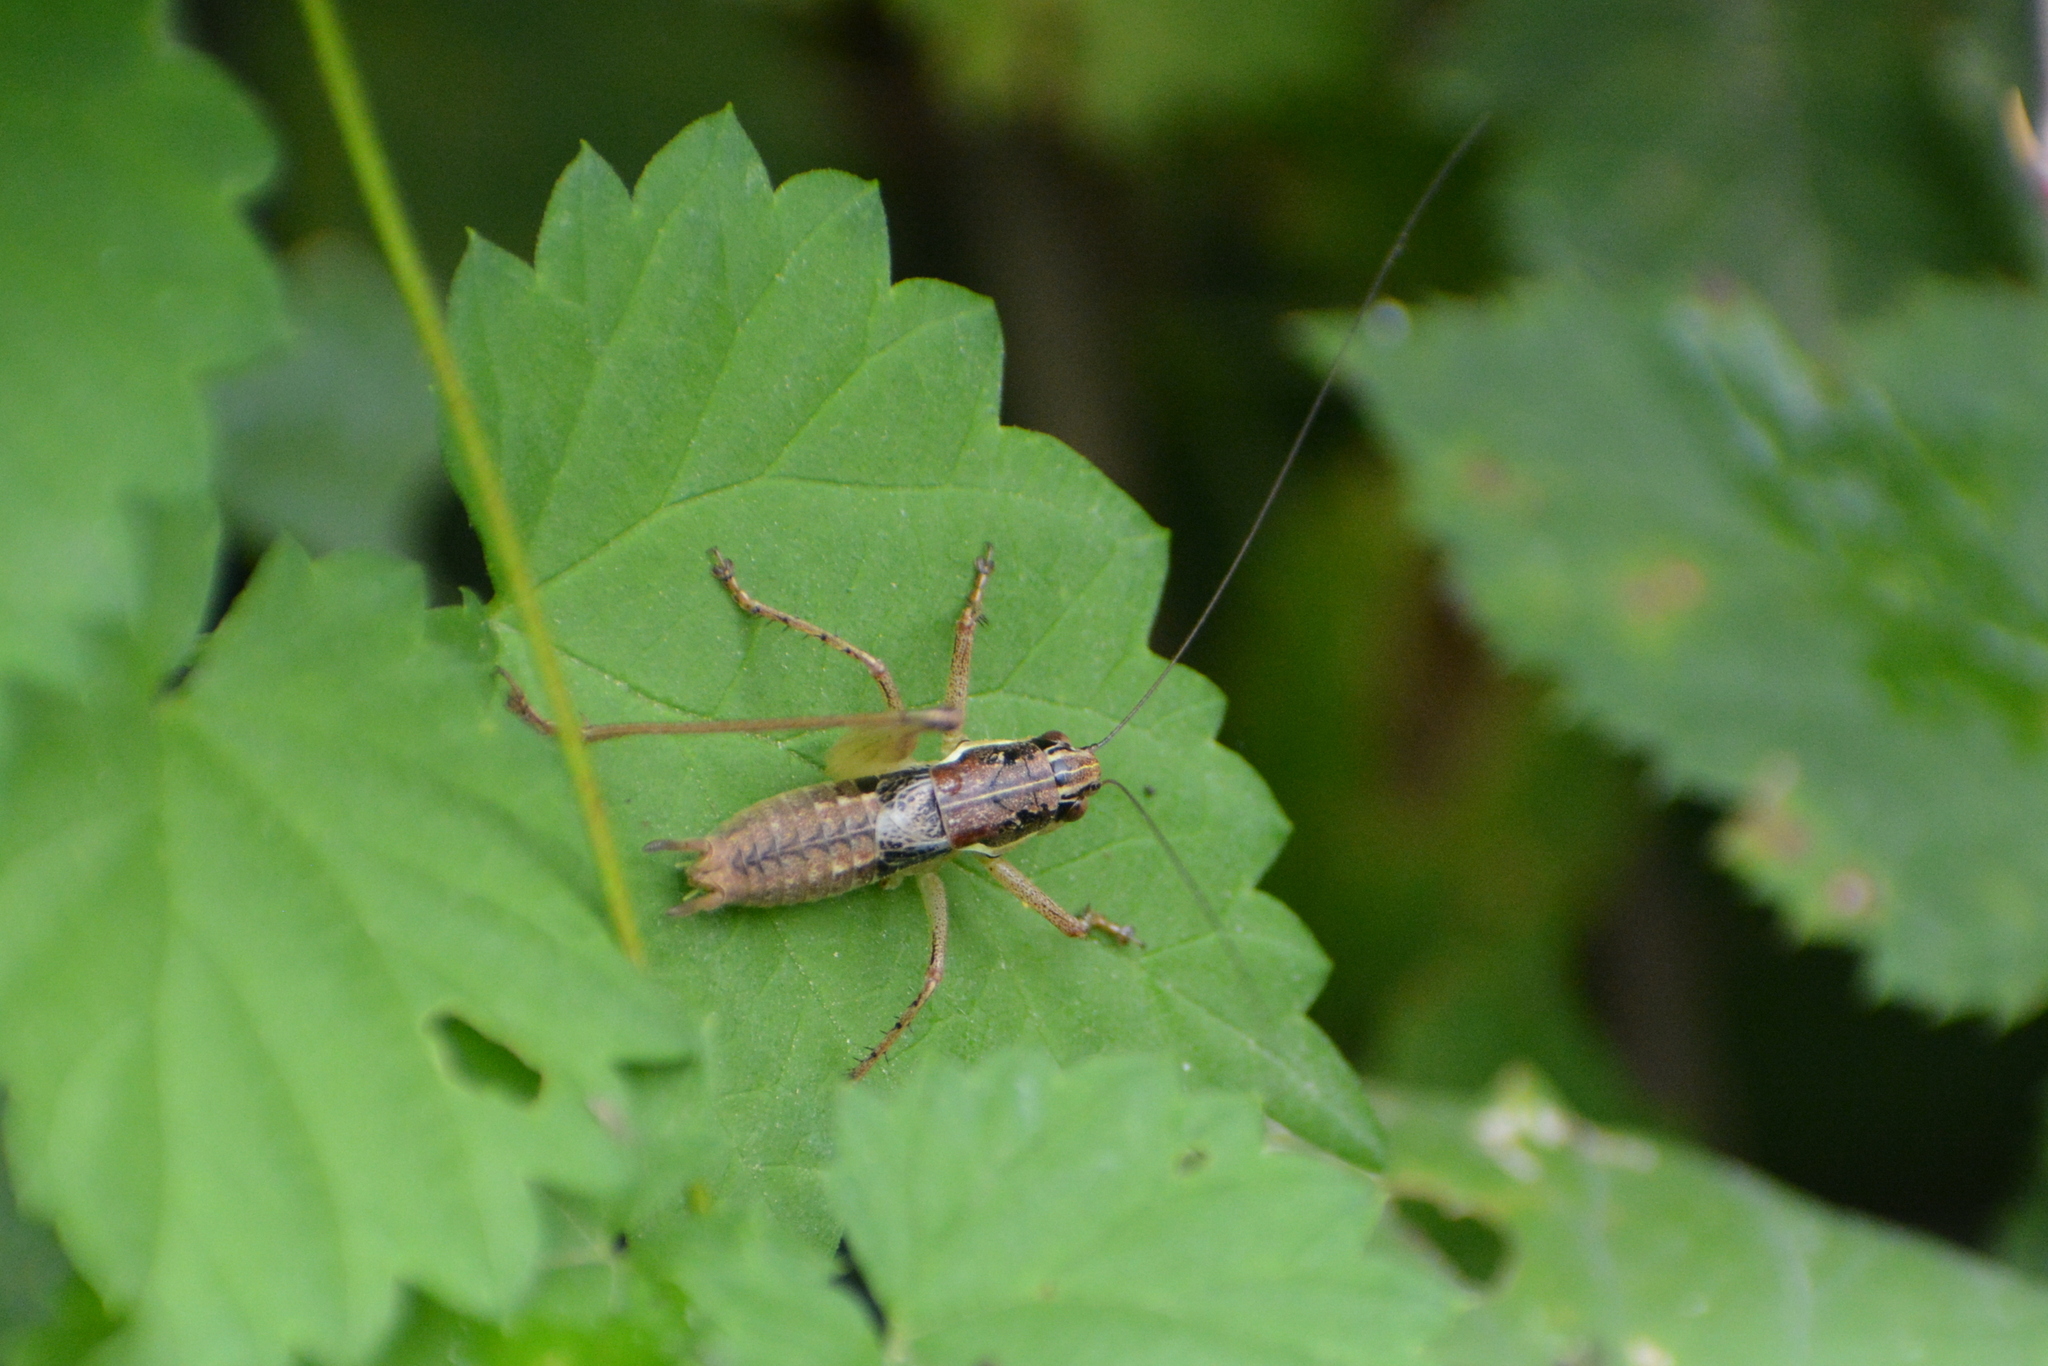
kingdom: Animalia
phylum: Arthropoda
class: Insecta
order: Orthoptera
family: Tettigoniidae
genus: Pachytrachis
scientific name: Pachytrachis gracilis
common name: Graceful bush-cricket
